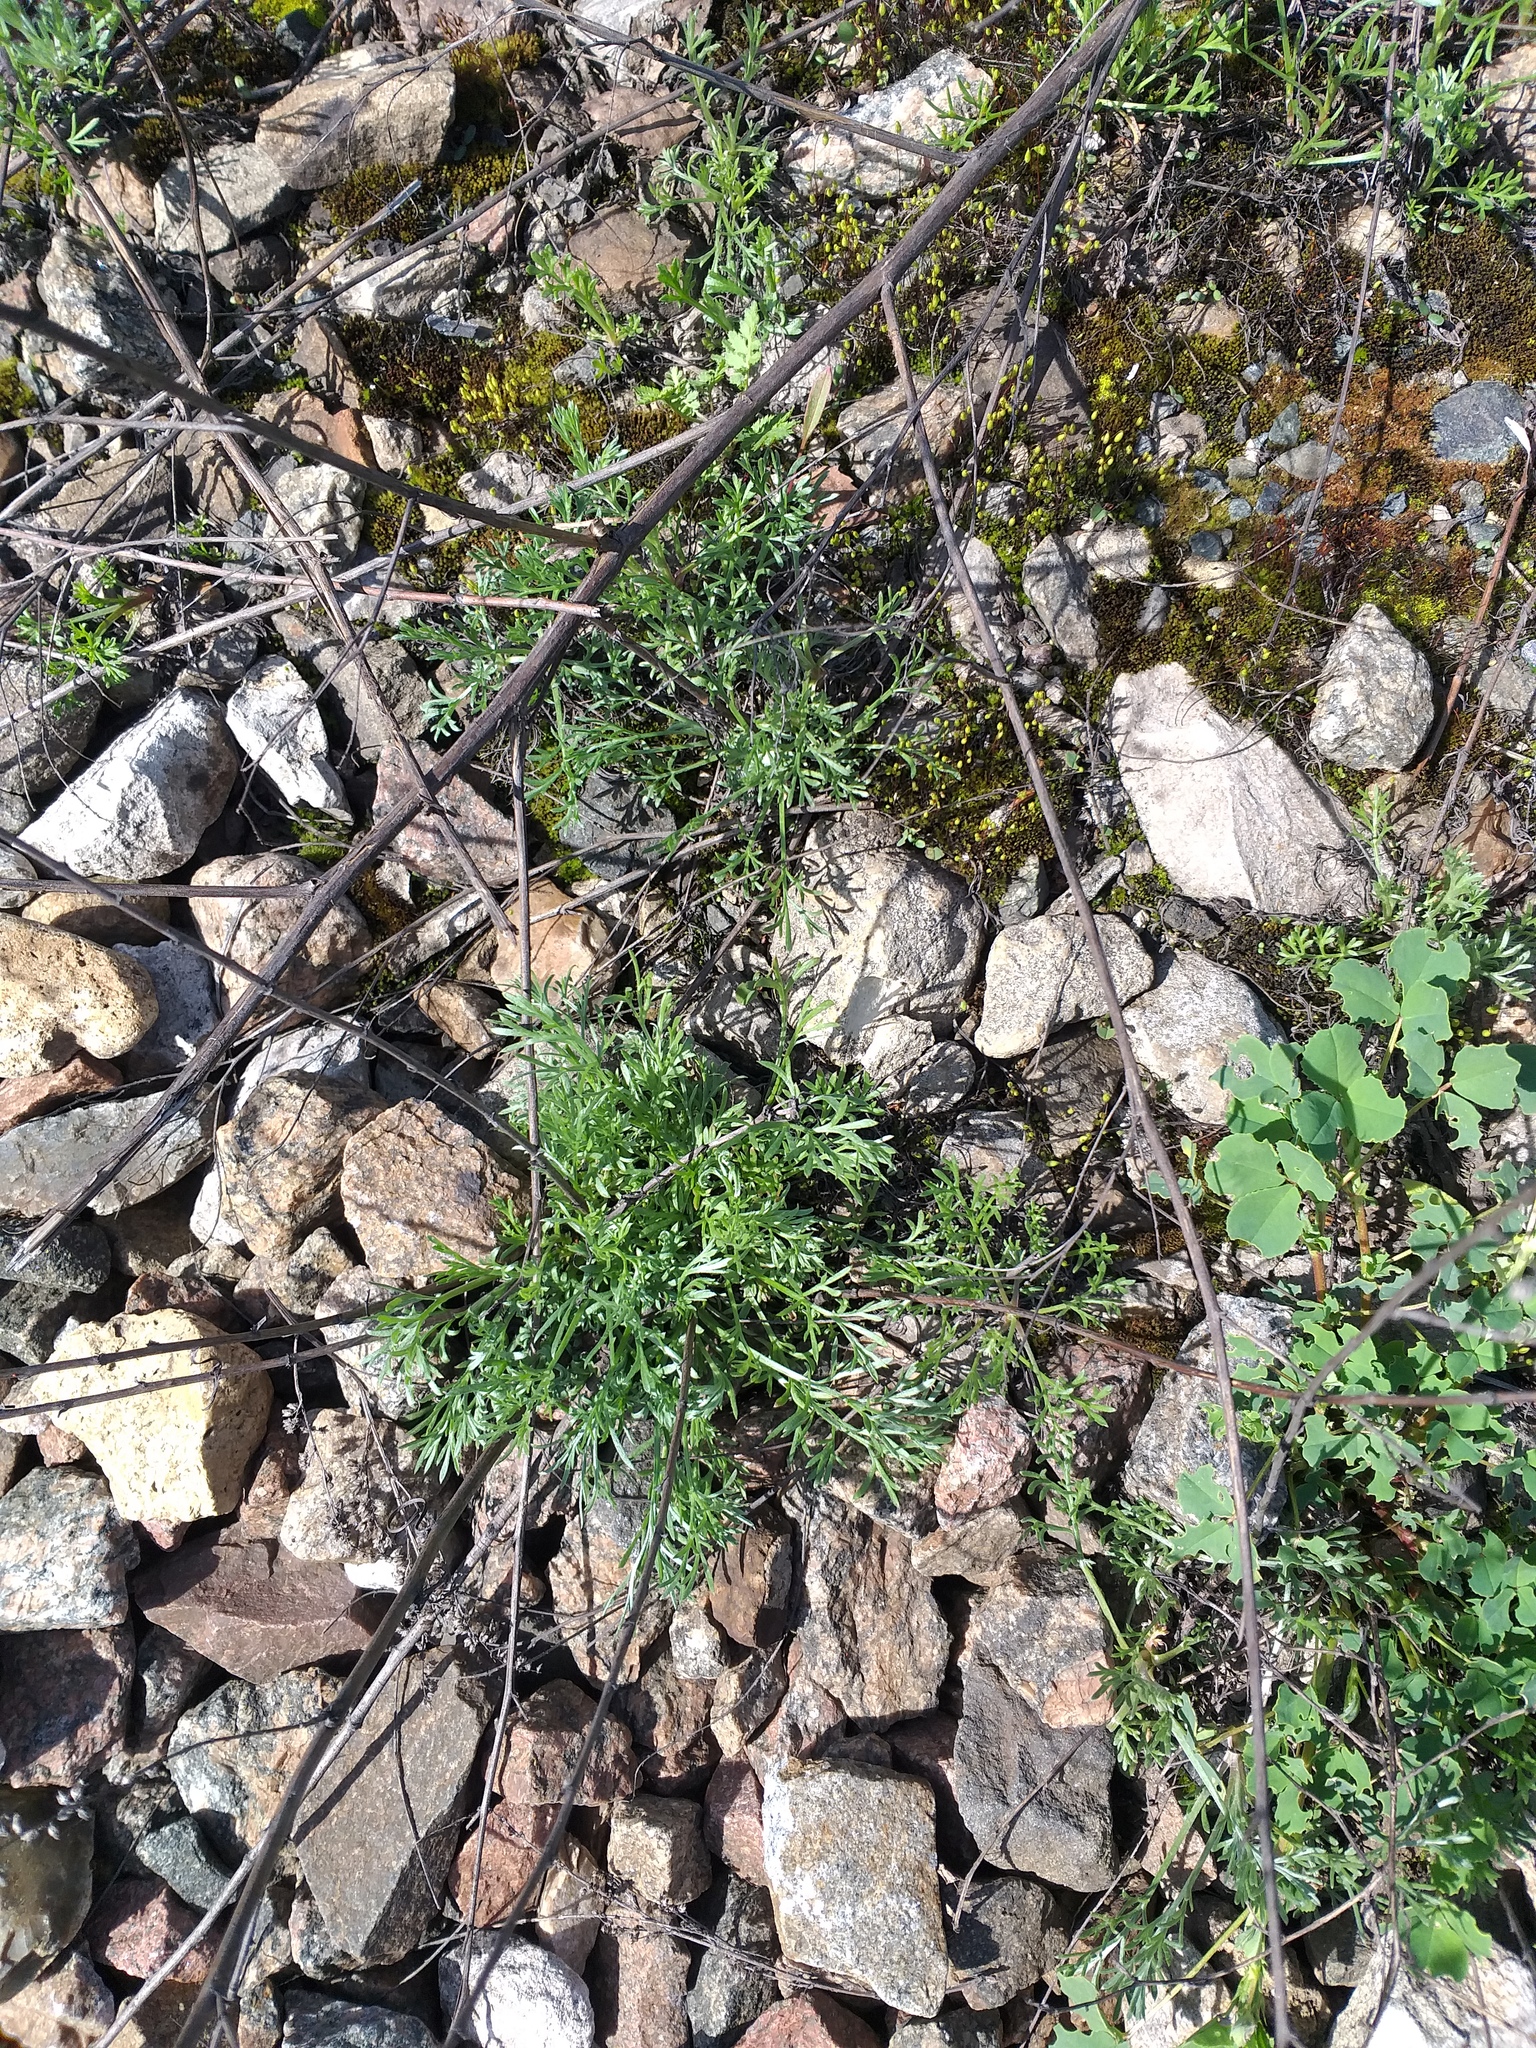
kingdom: Plantae
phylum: Tracheophyta
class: Magnoliopsida
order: Asterales
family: Asteraceae
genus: Artemisia
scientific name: Artemisia campestris
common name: Field wormwood
